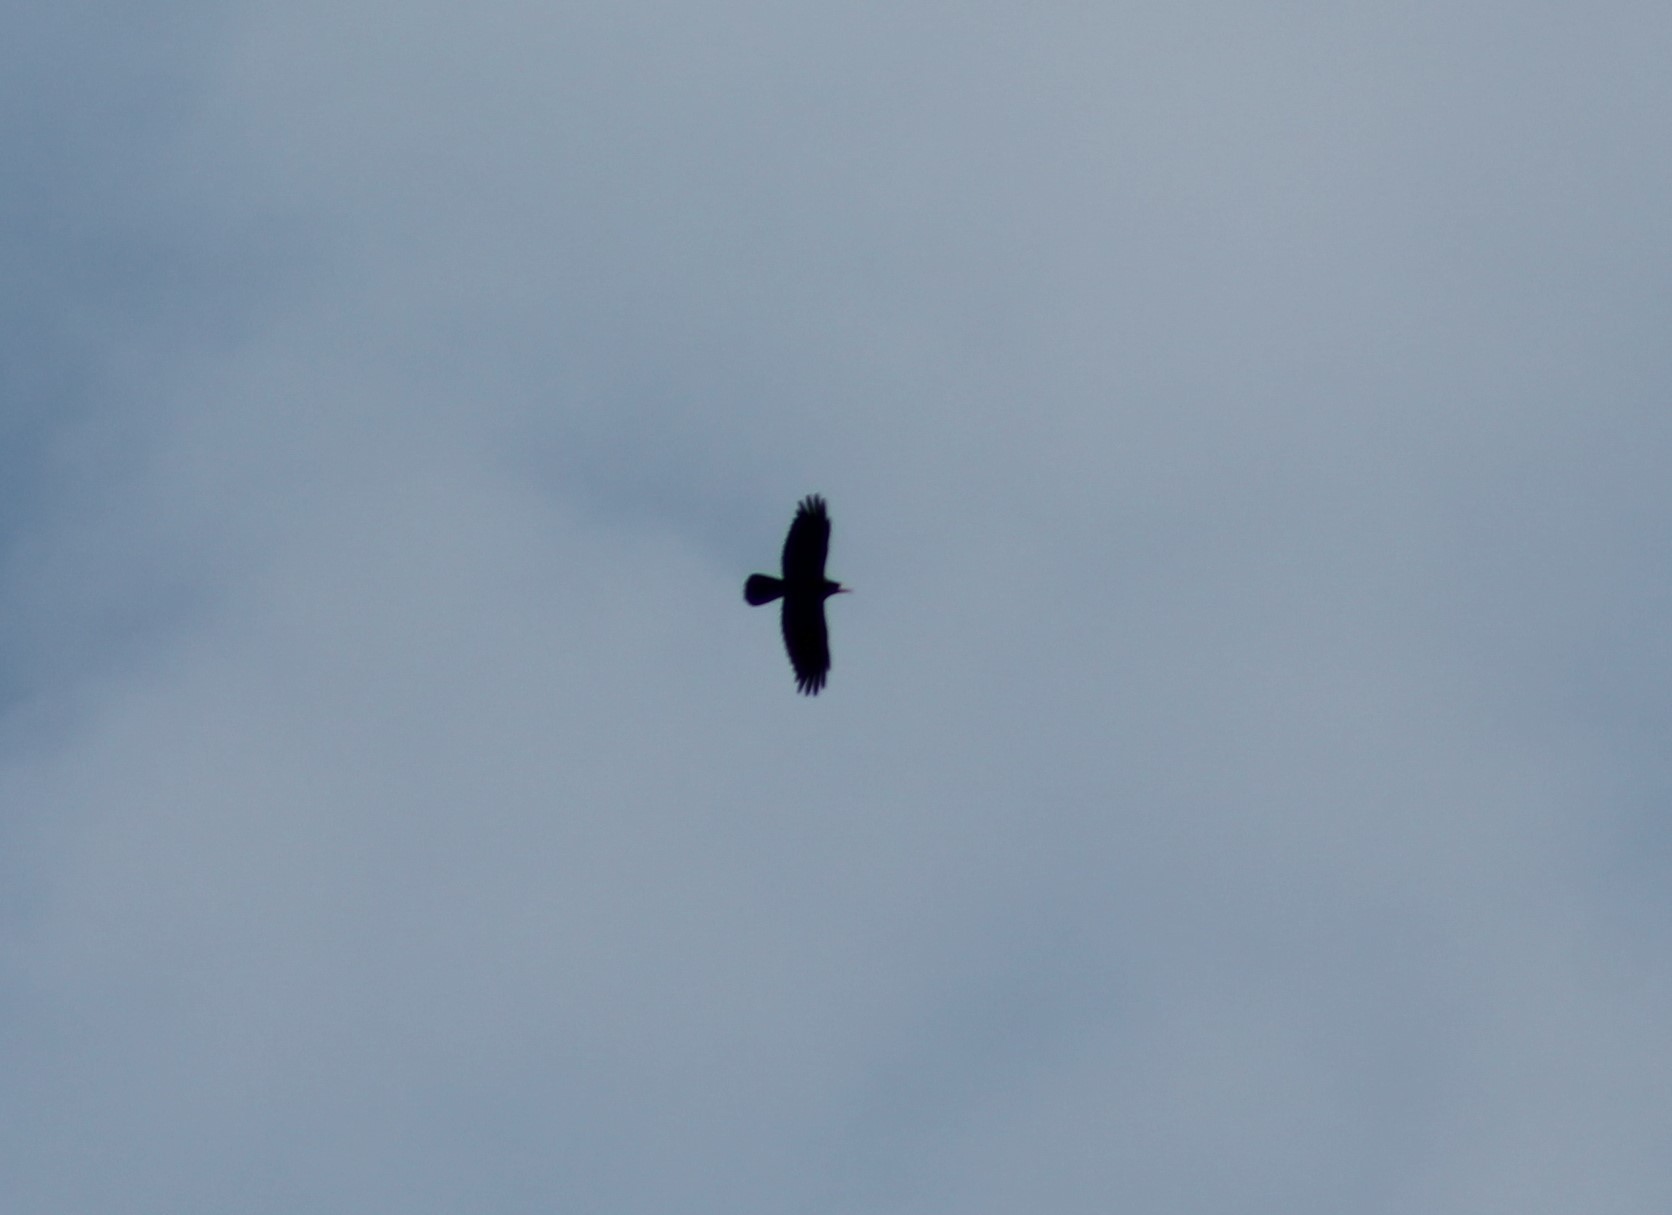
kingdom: Animalia
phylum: Chordata
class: Aves
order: Passeriformes
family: Corvidae
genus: Corvus
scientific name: Corvus frugilegus
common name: Rook
